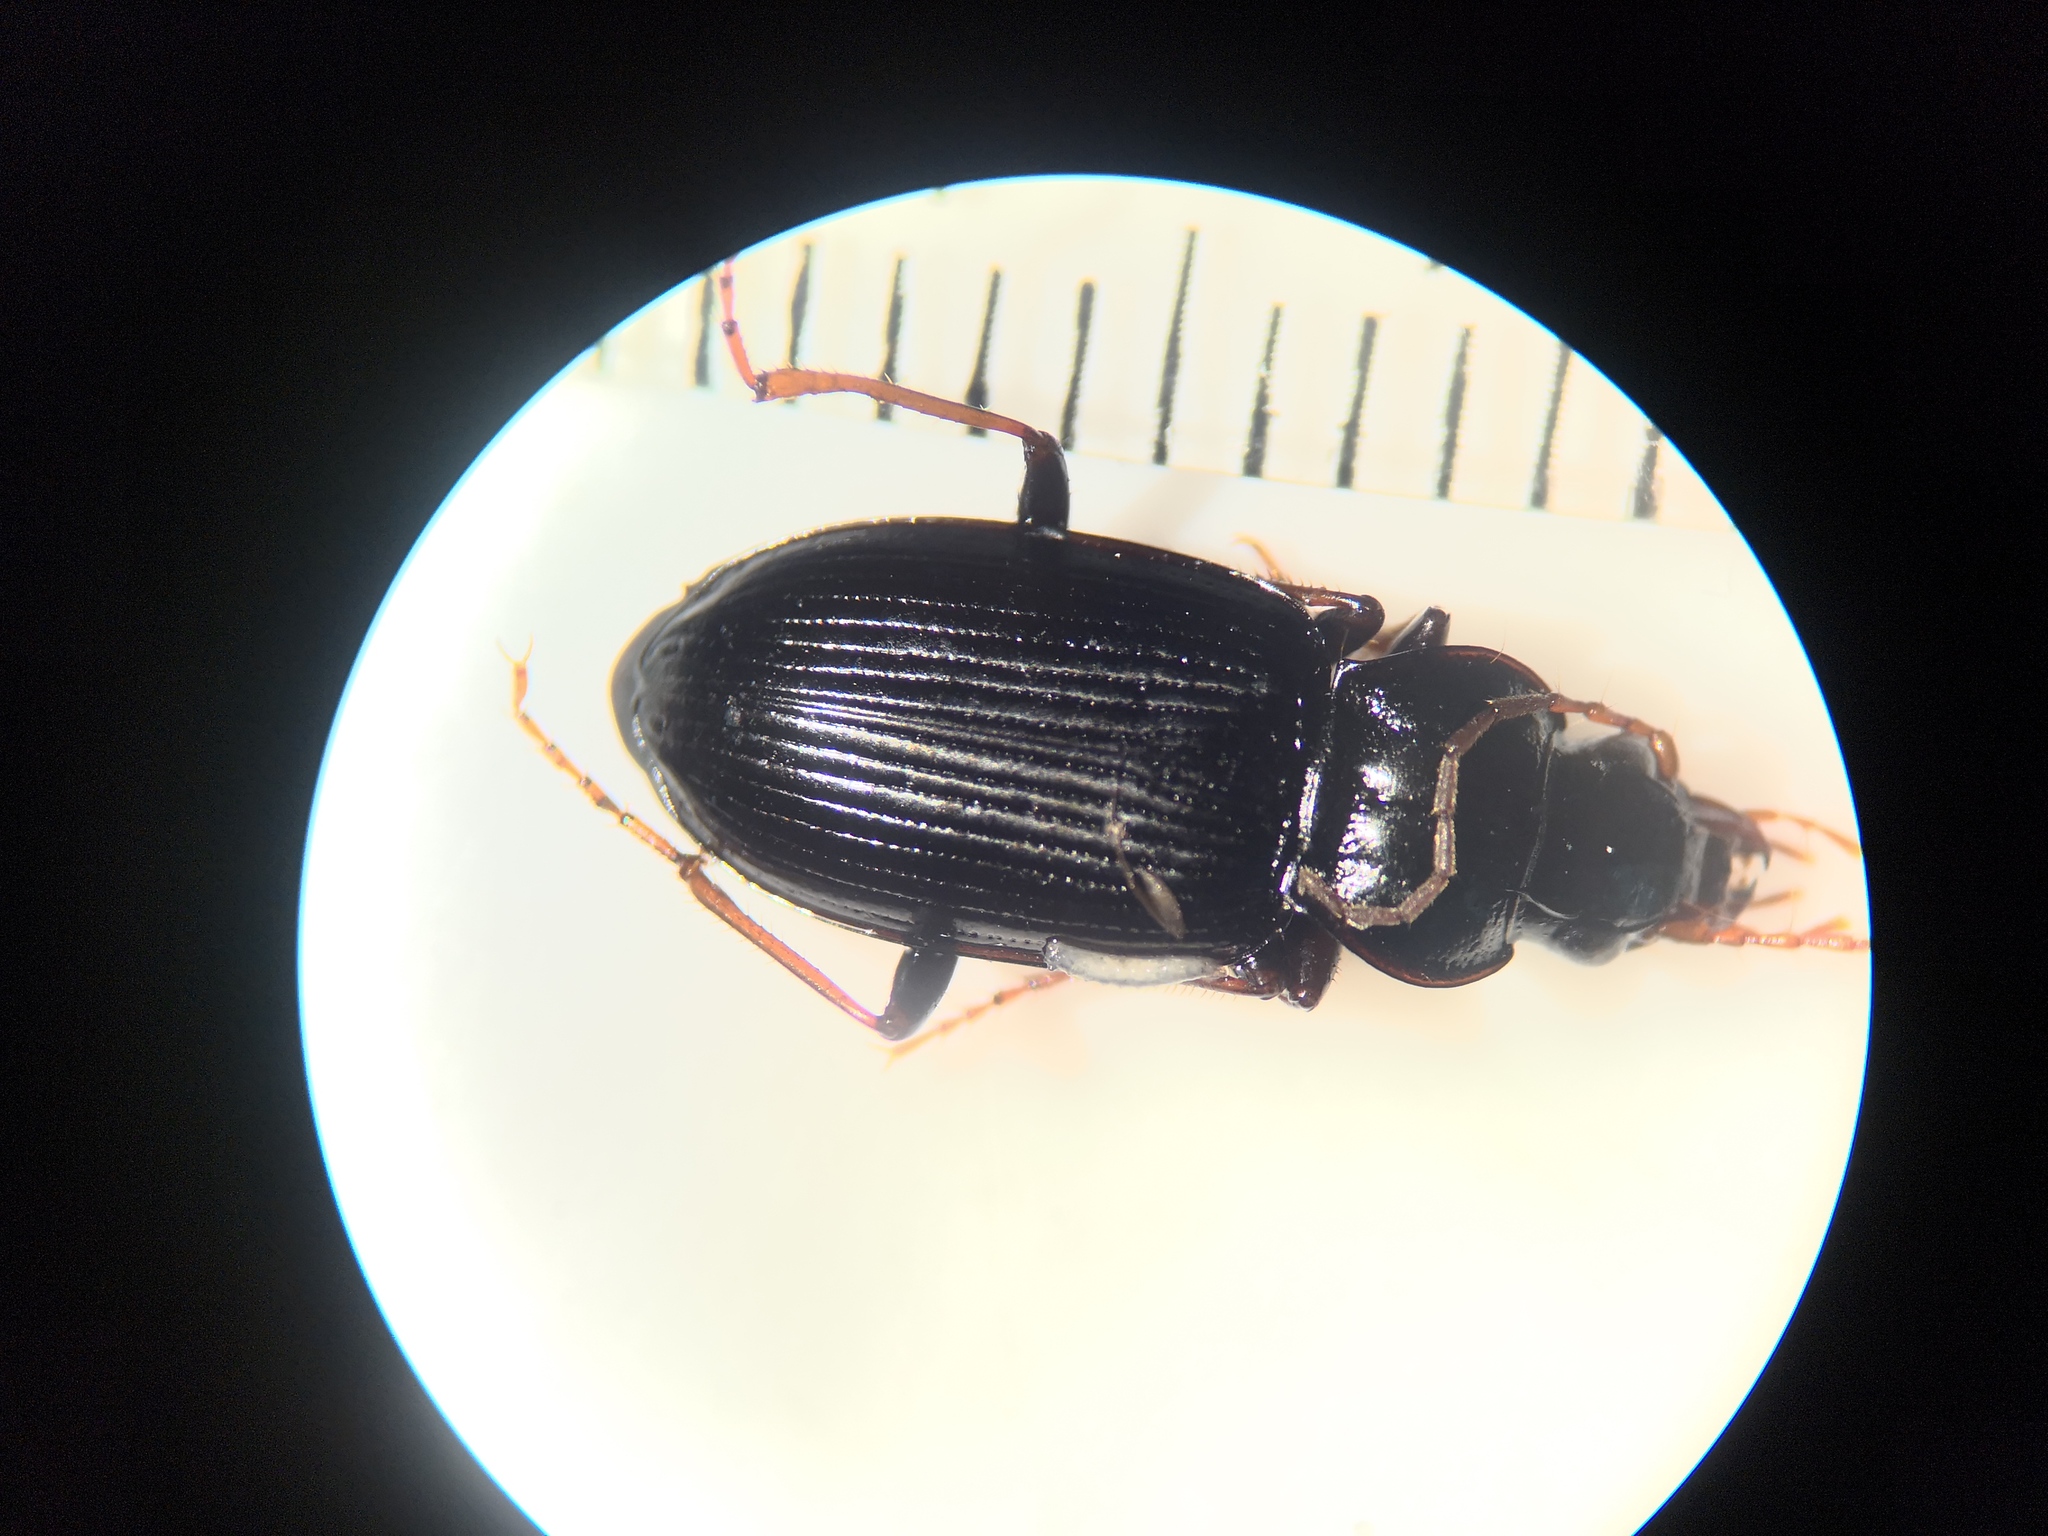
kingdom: Animalia
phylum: Arthropoda
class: Insecta
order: Coleoptera
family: Carabidae
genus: Nebria
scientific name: Nebria brevicollis
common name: Short-necked gazelle beetle
